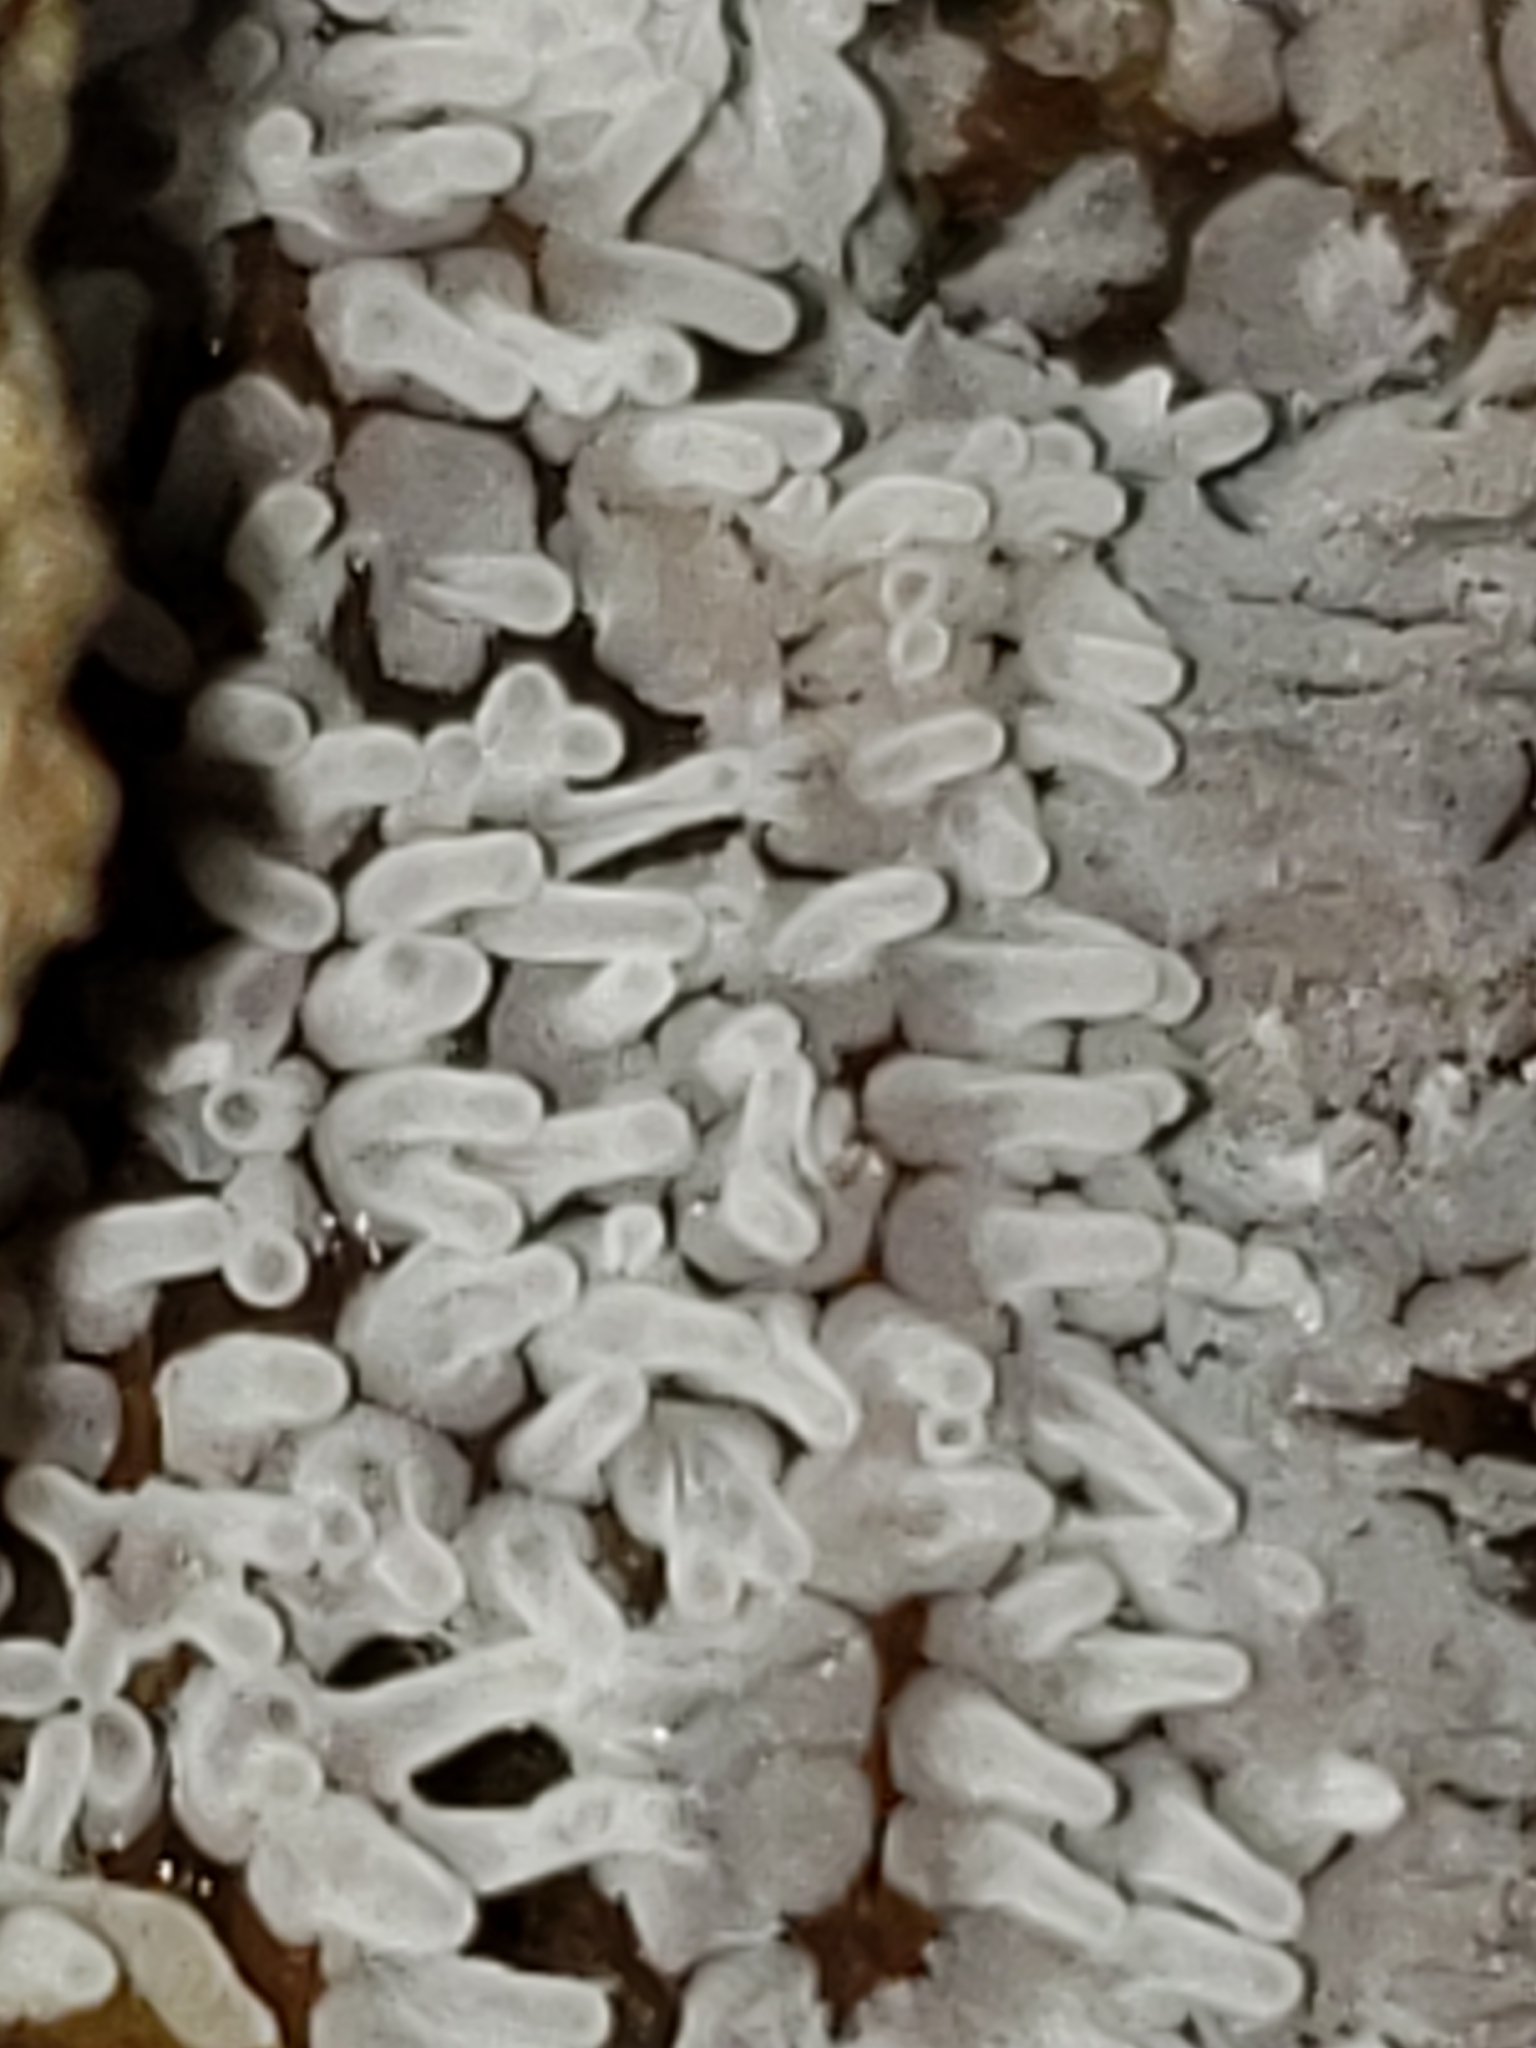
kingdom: Protozoa
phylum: Mycetozoa
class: Protosteliomycetes
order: Ceratiomyxales
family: Ceratiomyxaceae
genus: Ceratiomyxa
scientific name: Ceratiomyxa fruticulosa
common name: Honeycomb coral slime mold
